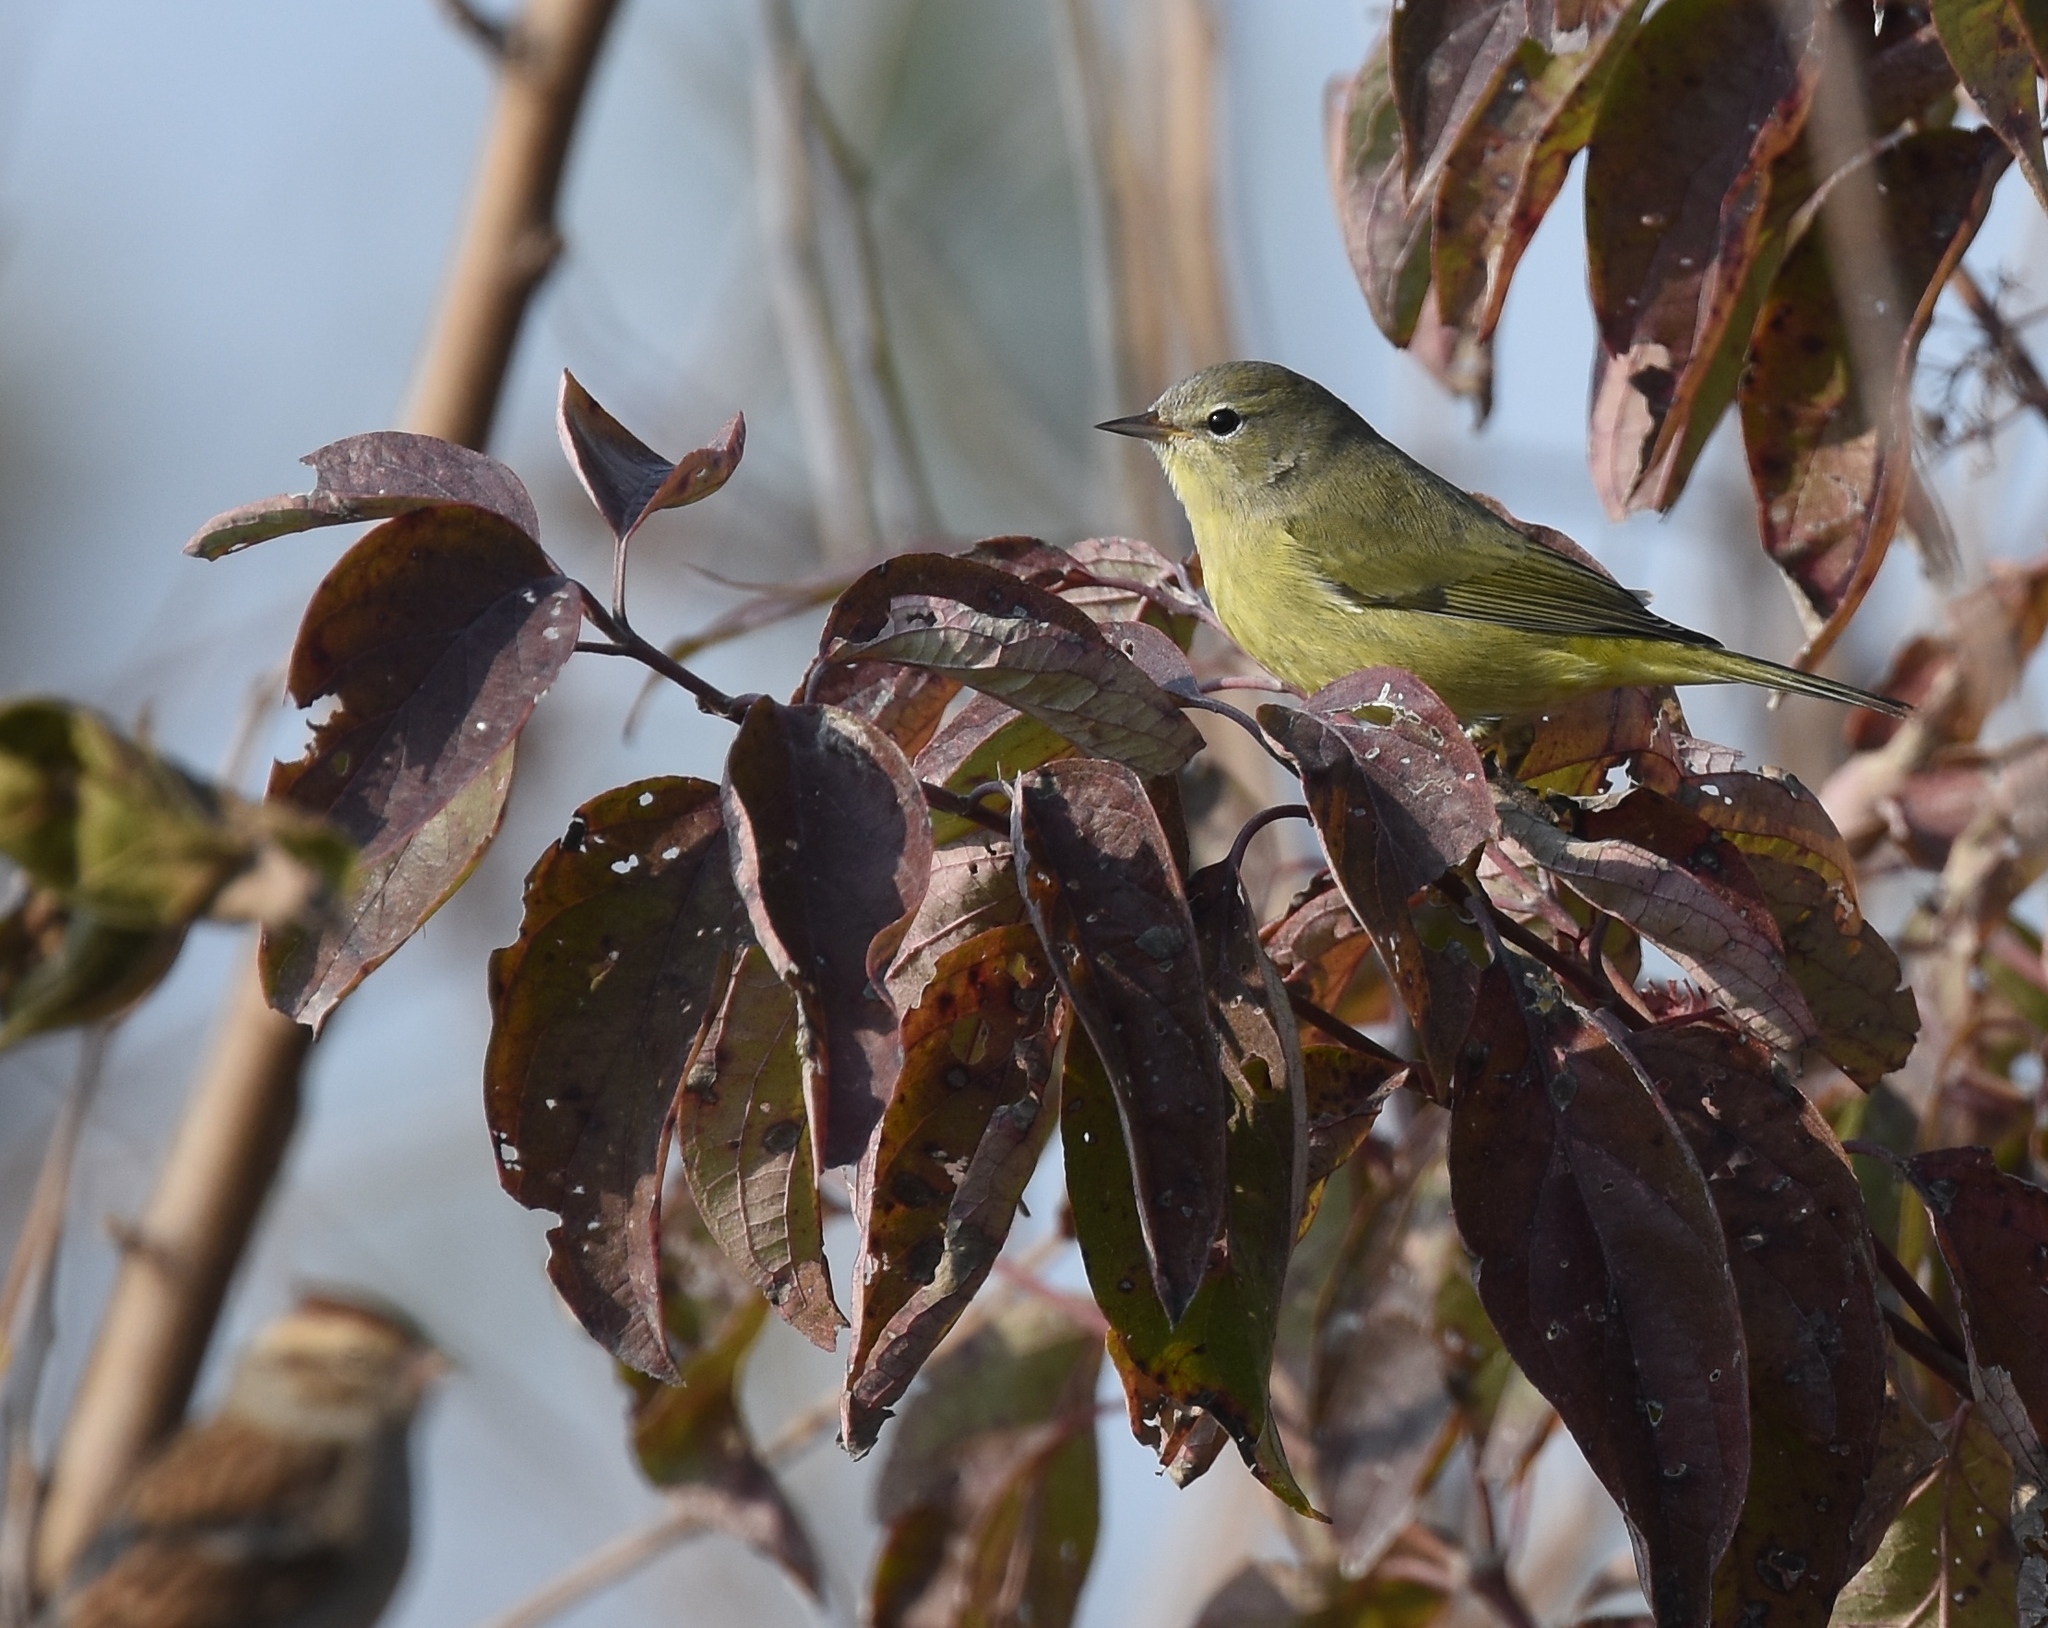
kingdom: Animalia
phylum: Chordata
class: Aves
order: Passeriformes
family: Parulidae
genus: Leiothlypis
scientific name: Leiothlypis celata
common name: Orange-crowned warbler
